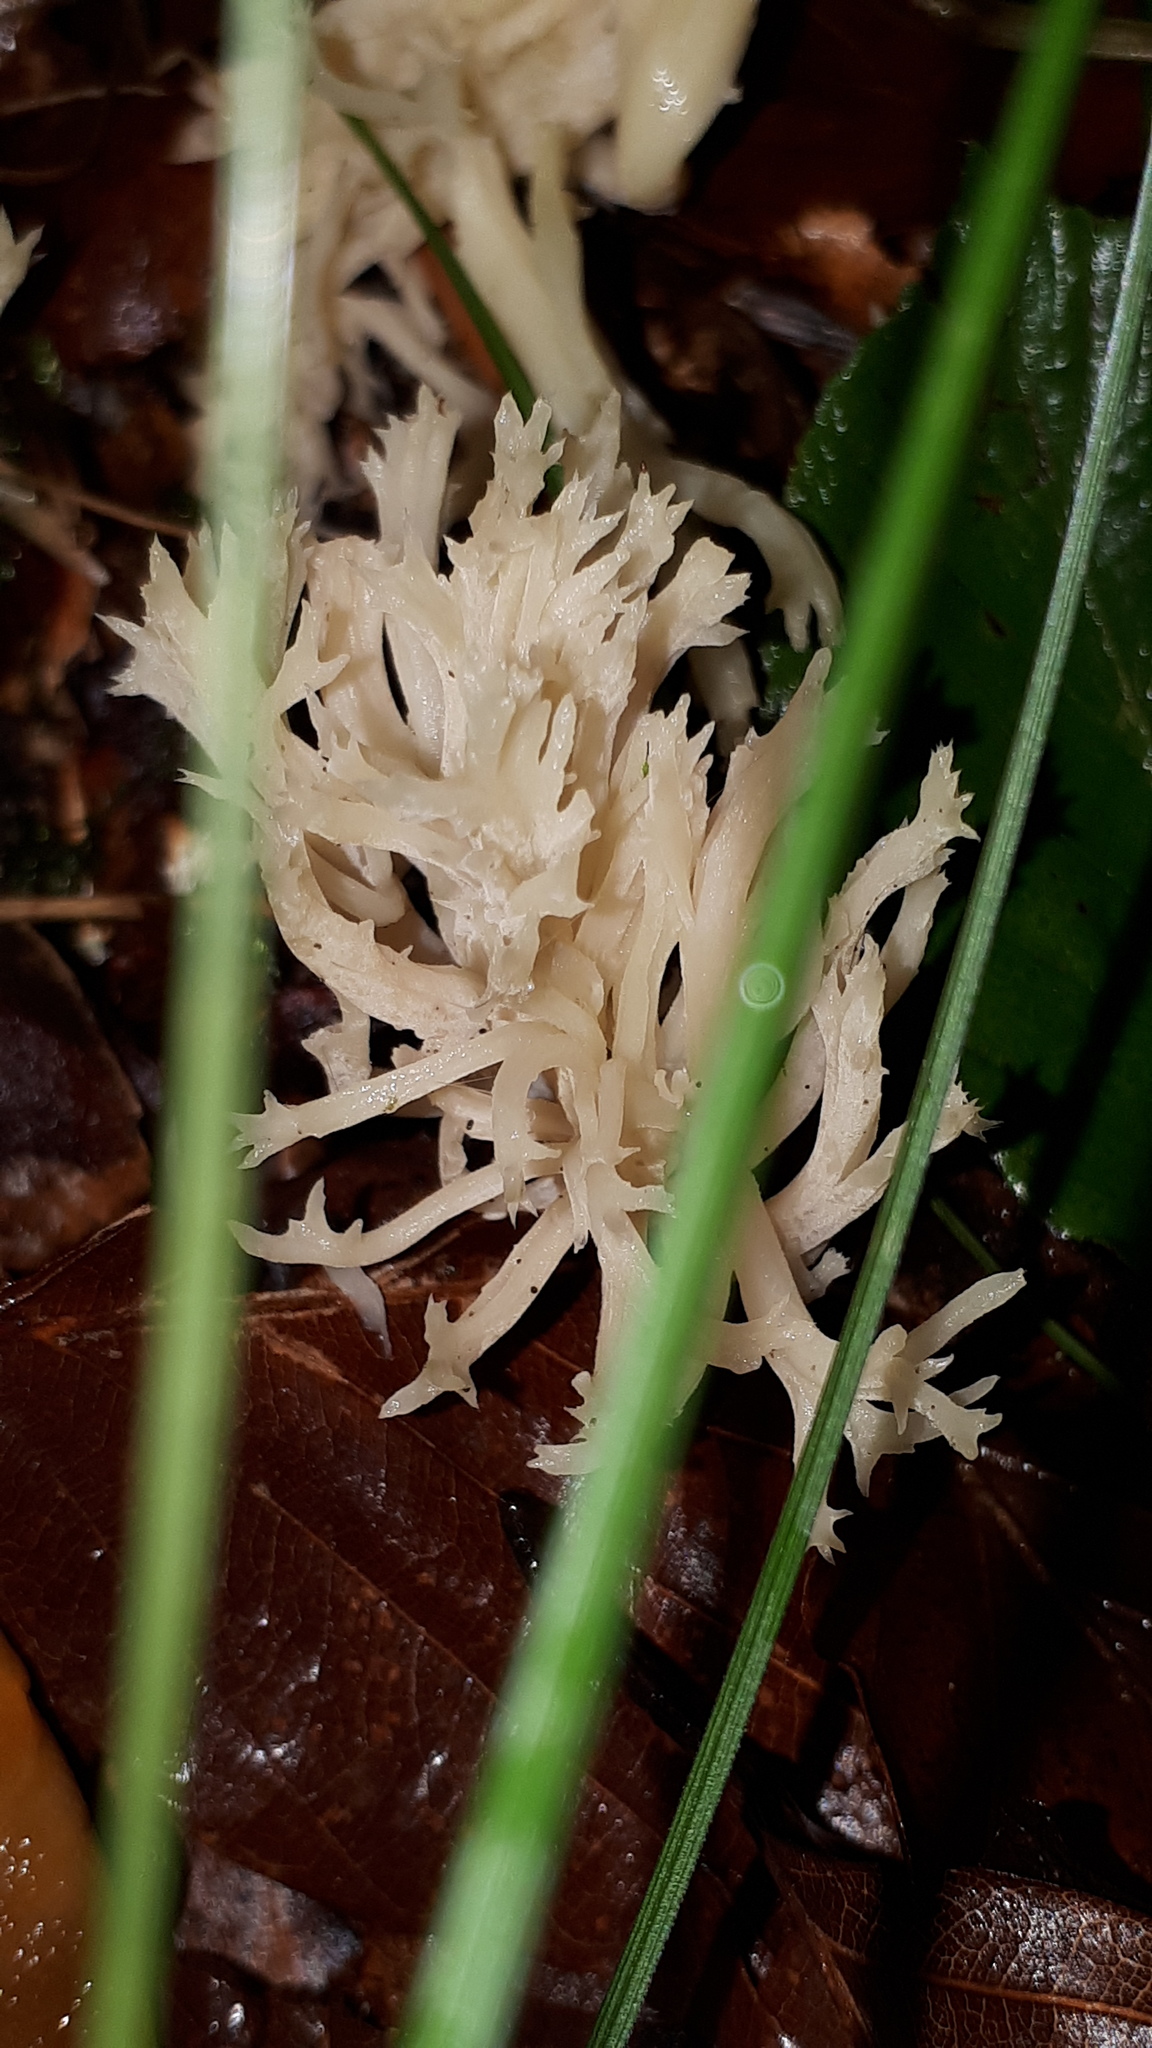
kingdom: Fungi
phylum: Basidiomycota
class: Agaricomycetes
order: Cantharellales
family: Hydnaceae
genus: Clavulina
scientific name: Clavulina coralloides
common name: Crested coral
